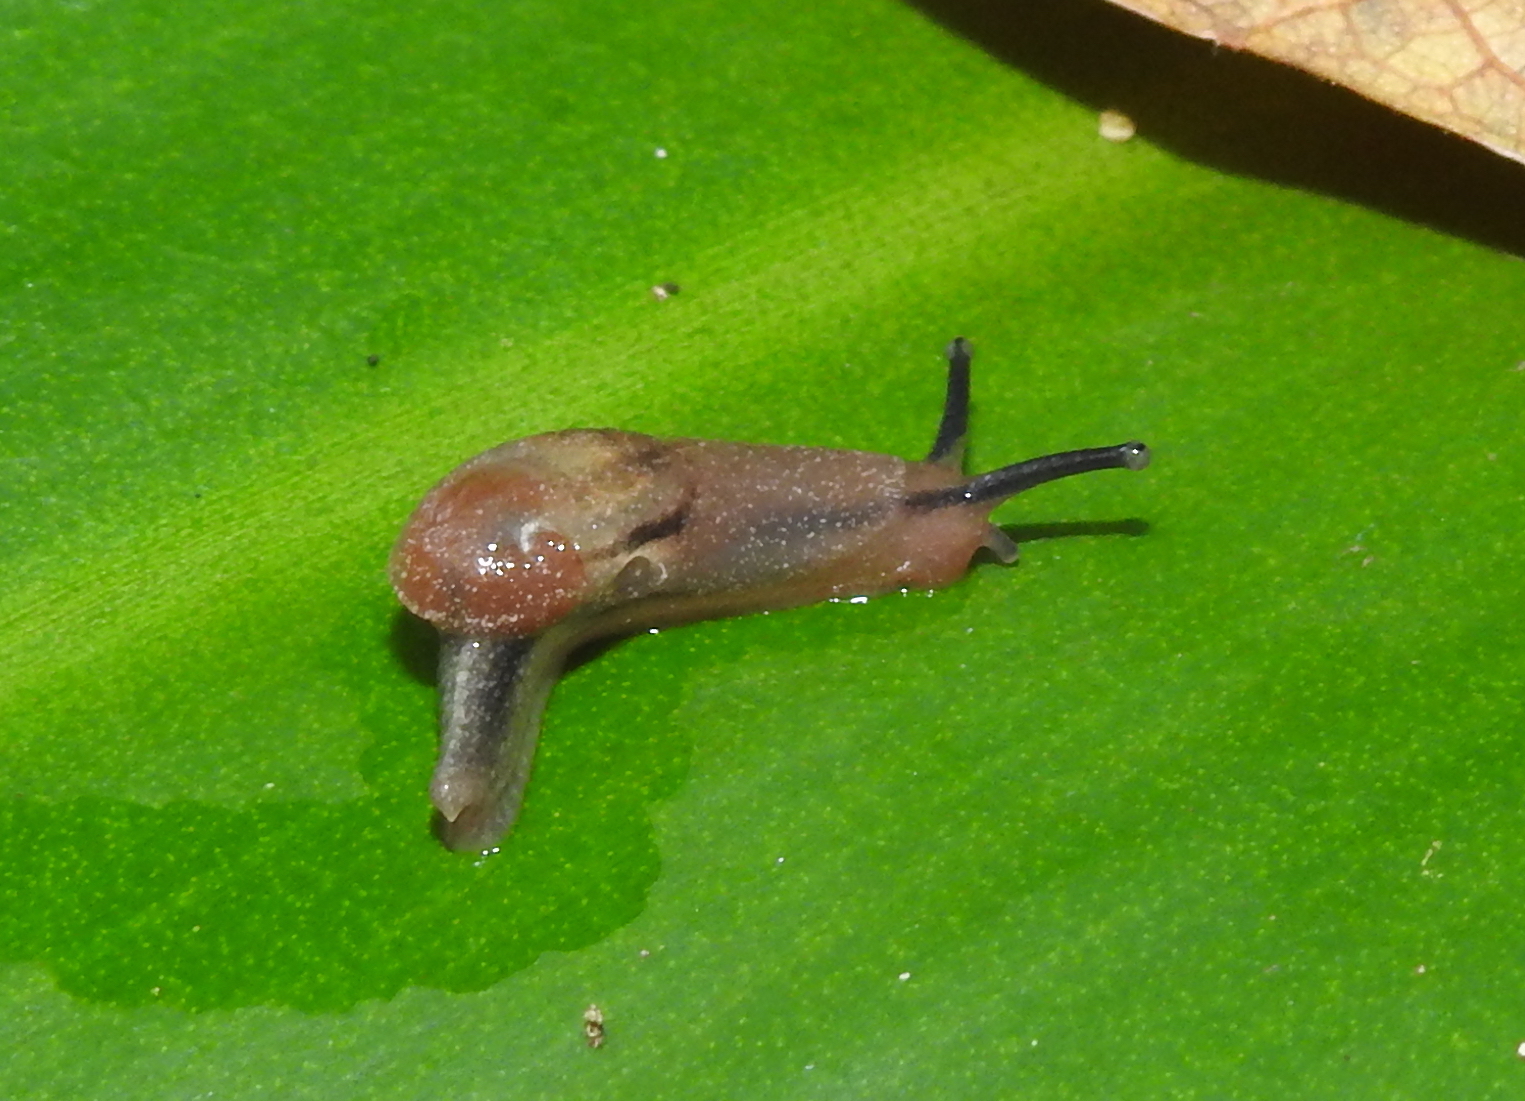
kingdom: Animalia
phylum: Mollusca
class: Gastropoda
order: Stylommatophora
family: Ariophantidae
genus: Parmarion
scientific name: Parmarion martensi
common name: Semi-slug
